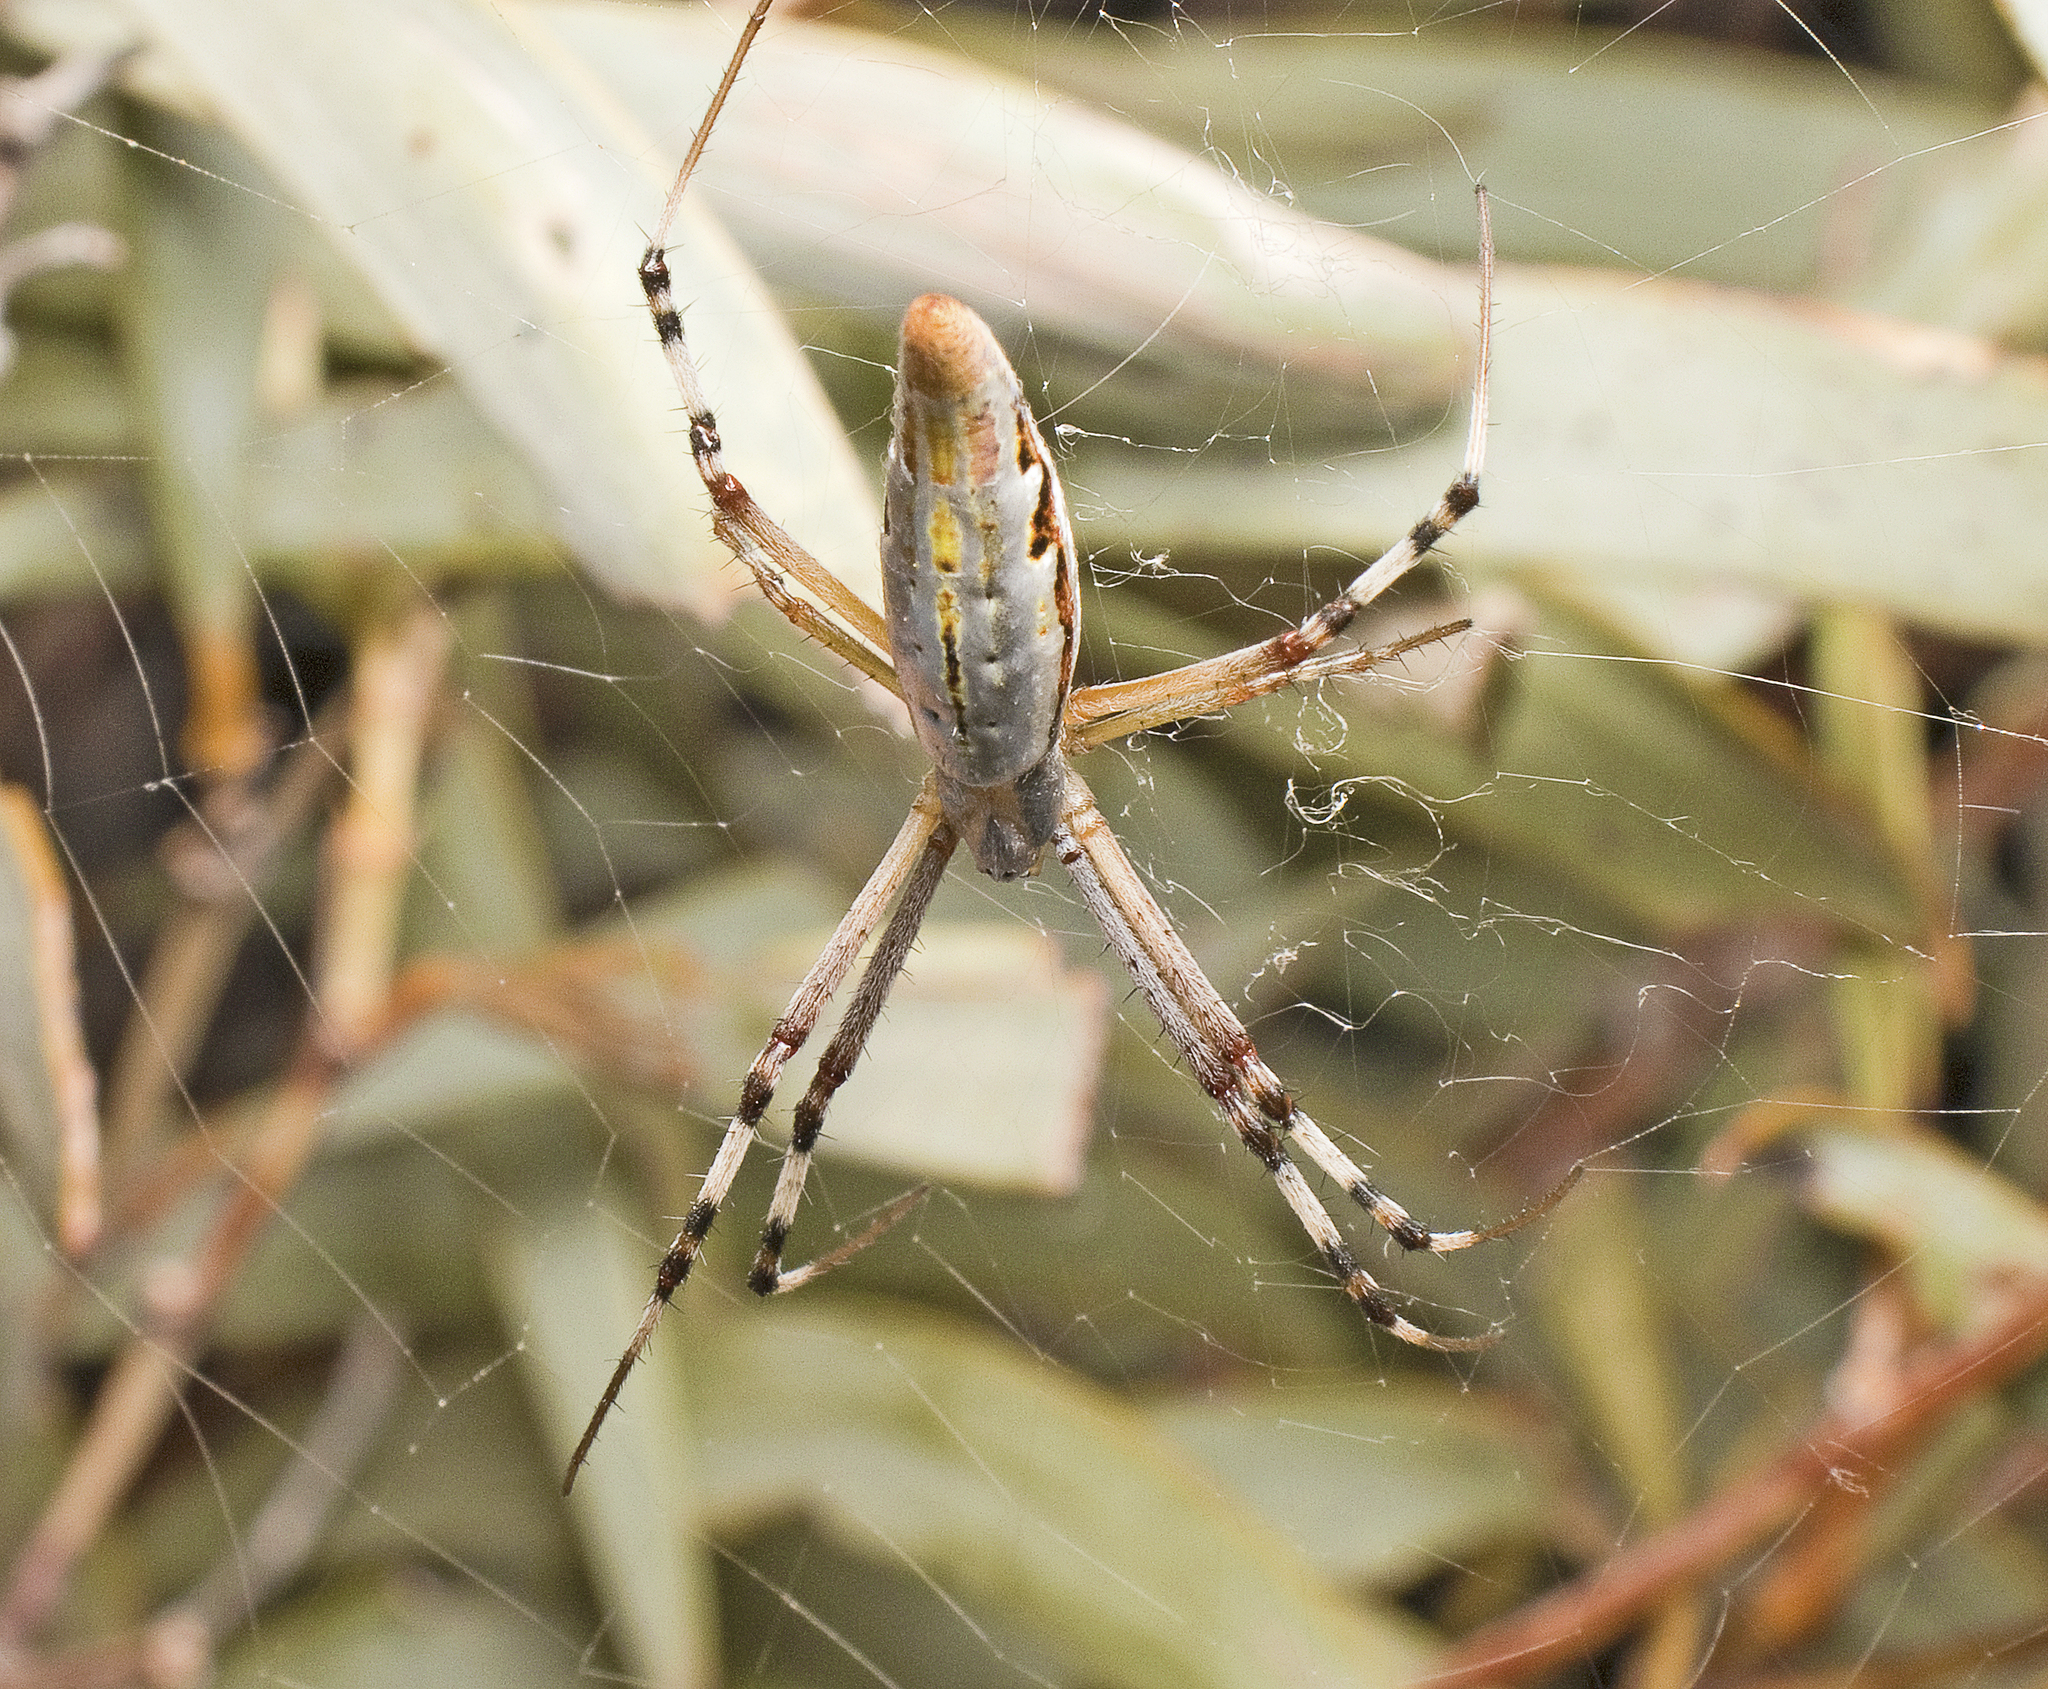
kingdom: Animalia
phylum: Arthropoda
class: Arachnida
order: Araneae
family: Araneidae
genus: Argiope
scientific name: Argiope protensa
